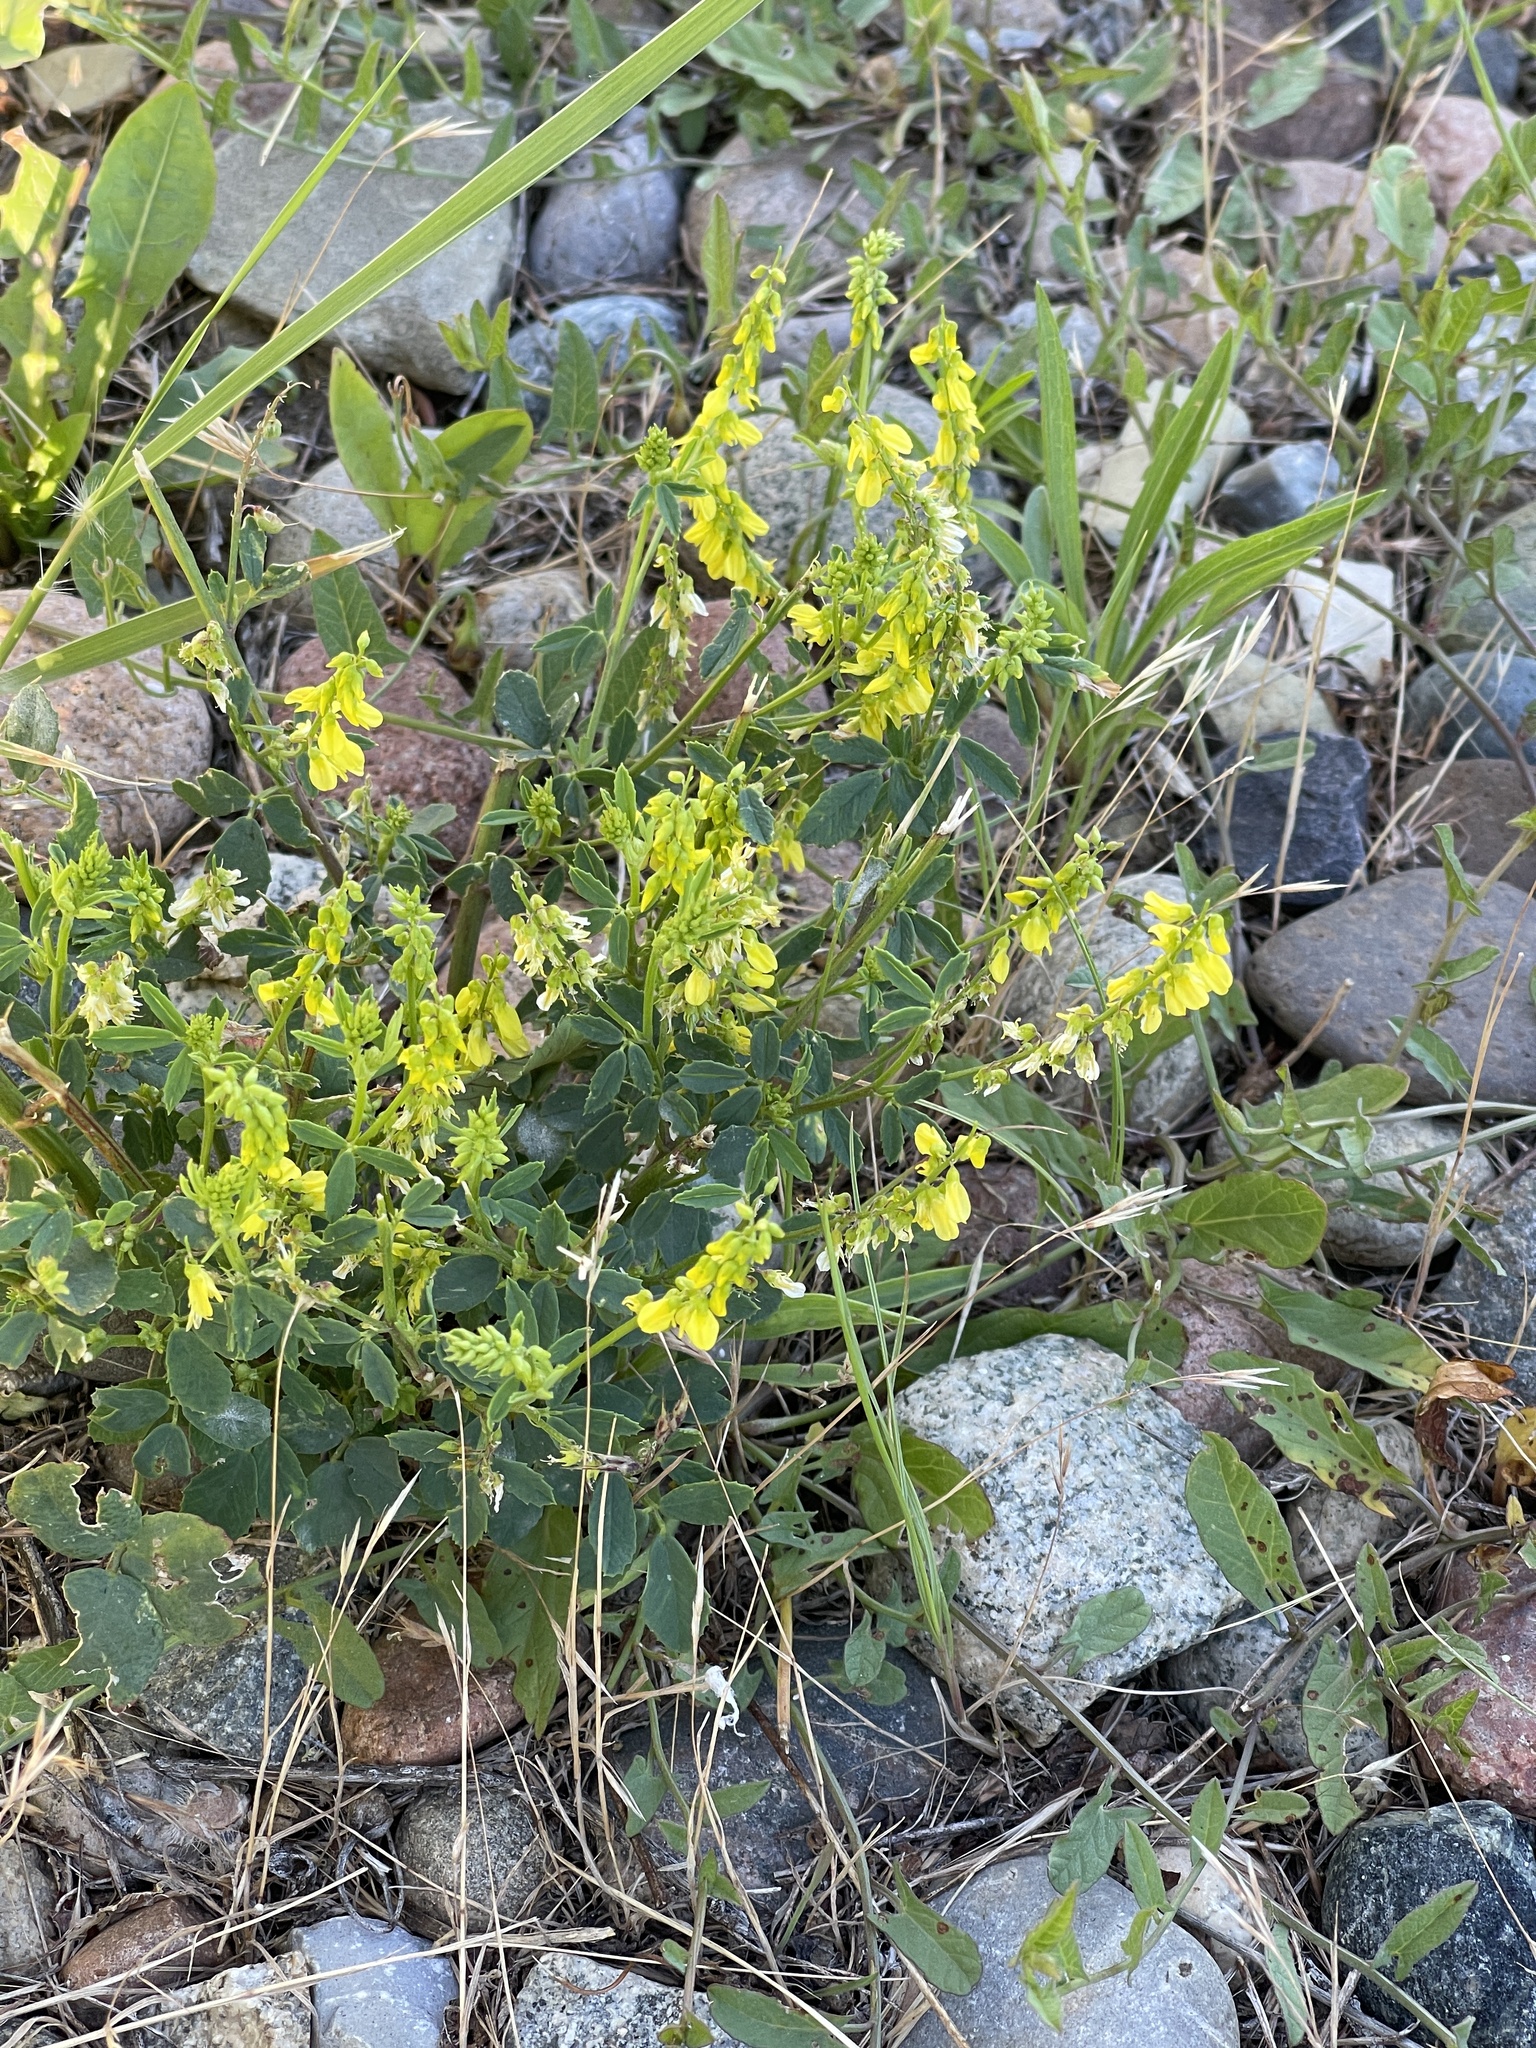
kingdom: Plantae
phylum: Tracheophyta
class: Magnoliopsida
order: Fabales
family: Fabaceae
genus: Melilotus
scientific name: Melilotus officinalis
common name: Sweetclover
